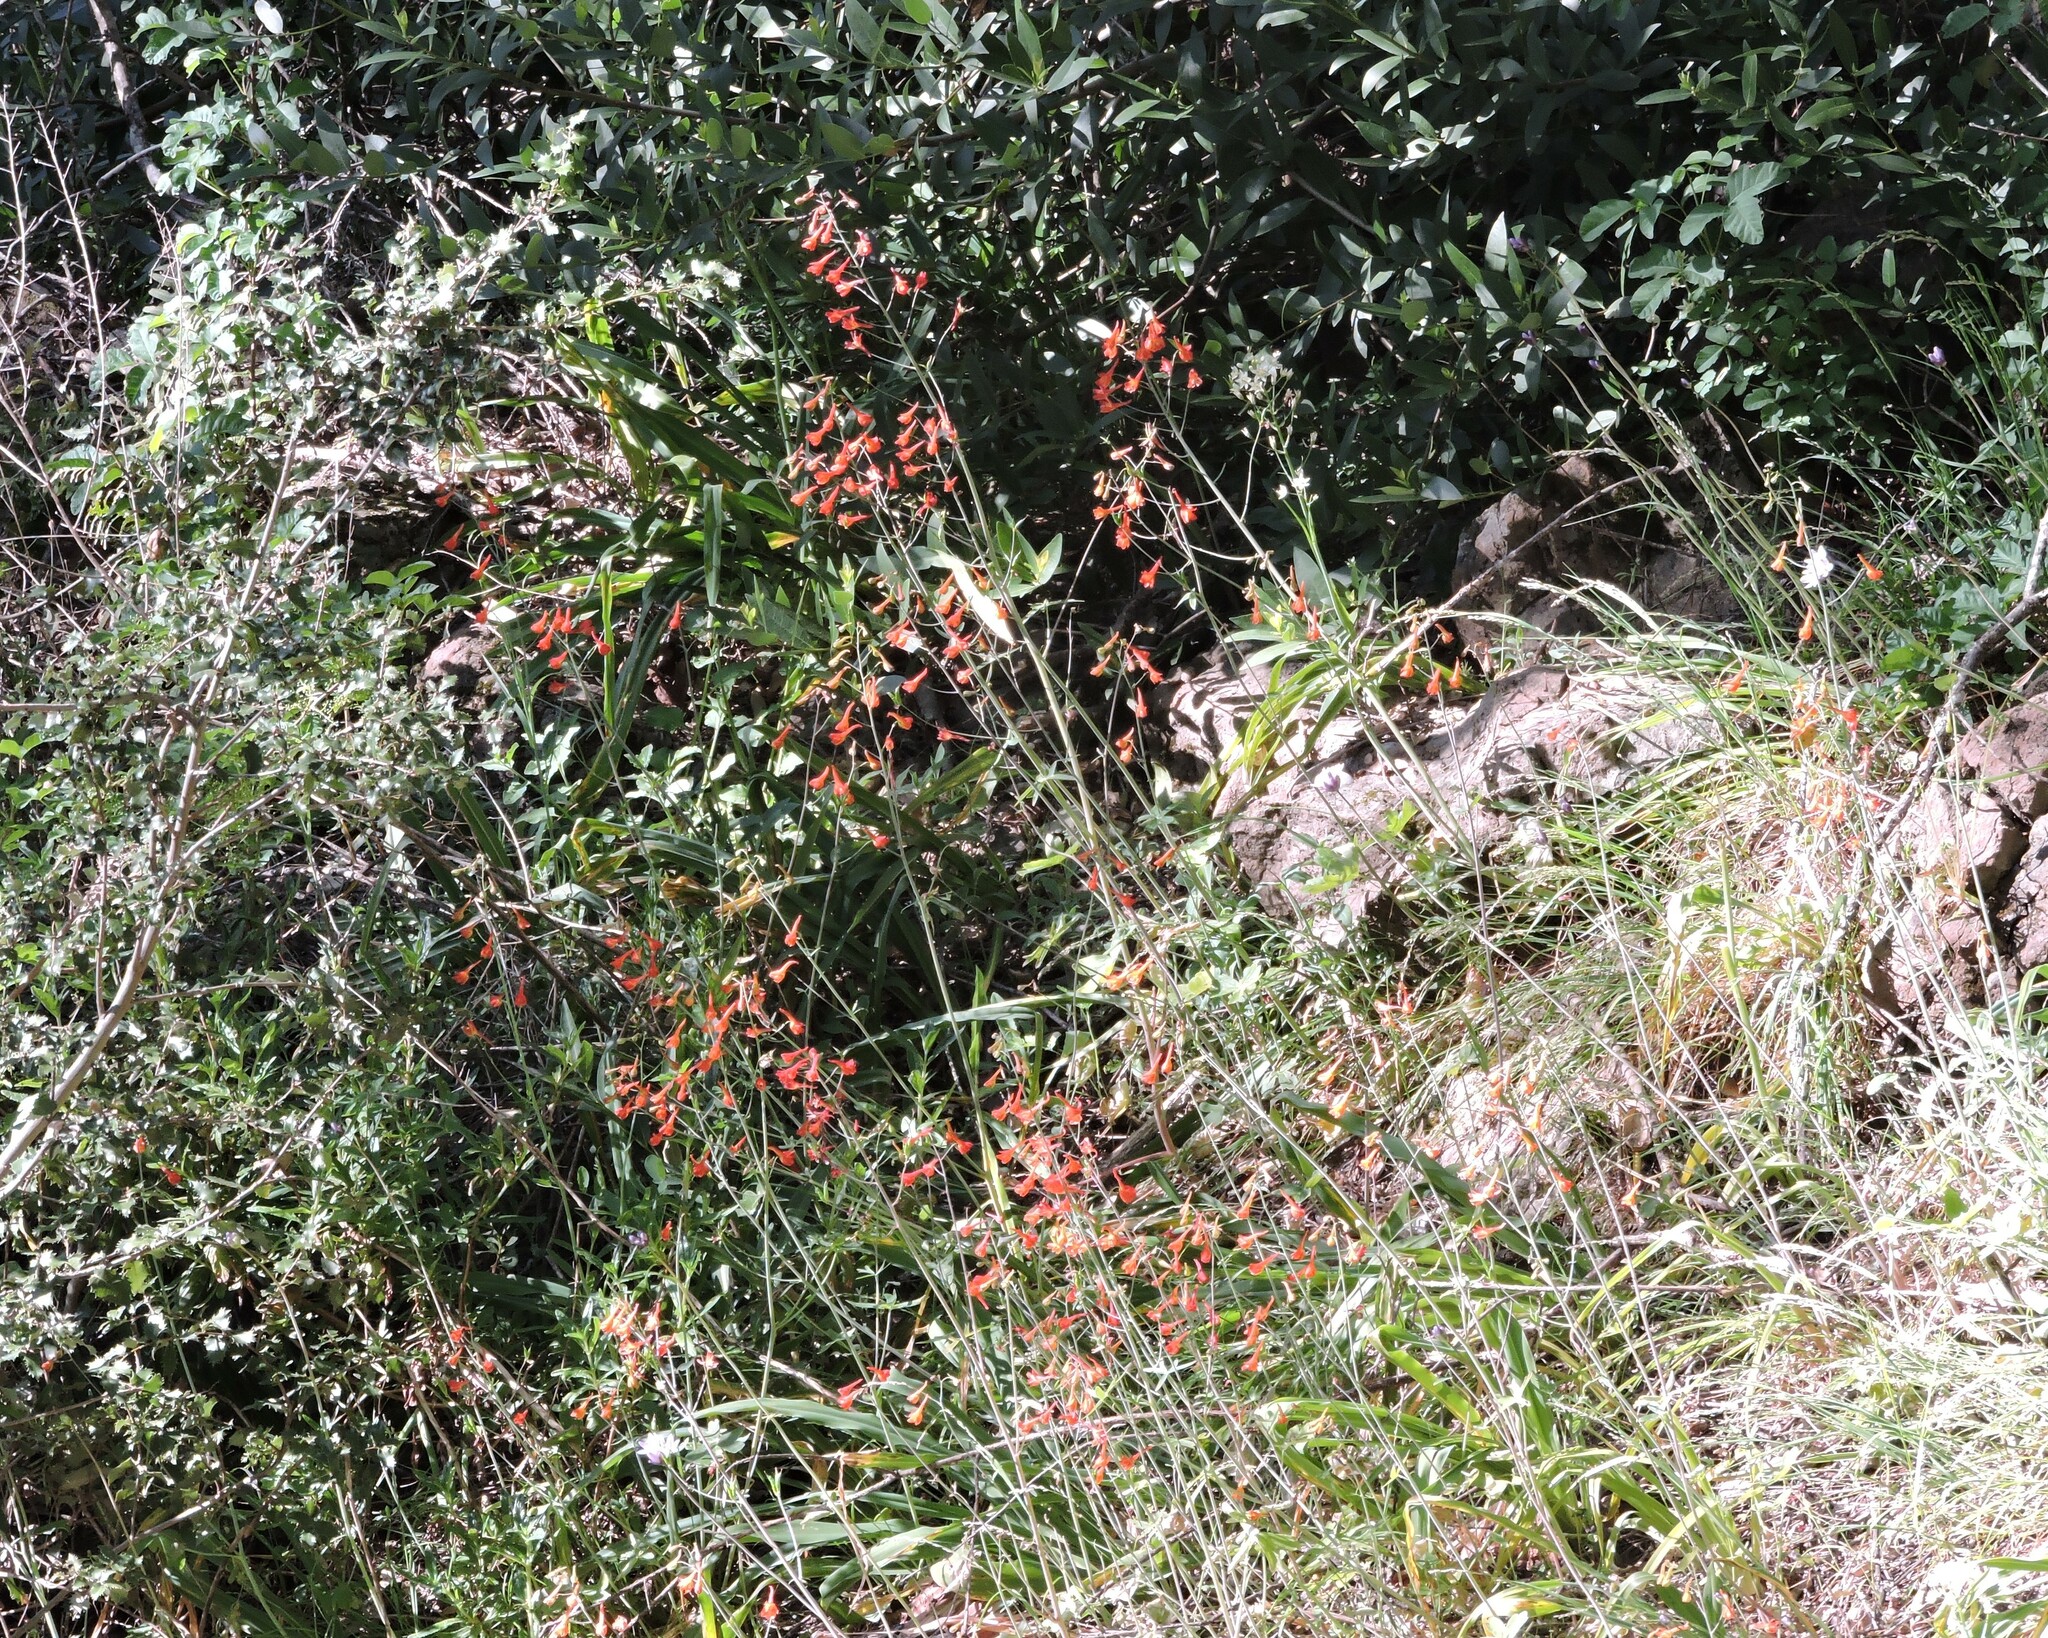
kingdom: Plantae
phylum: Tracheophyta
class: Magnoliopsida
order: Ranunculales
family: Ranunculaceae
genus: Delphinium
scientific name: Delphinium nudicaule
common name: Red larkspur
